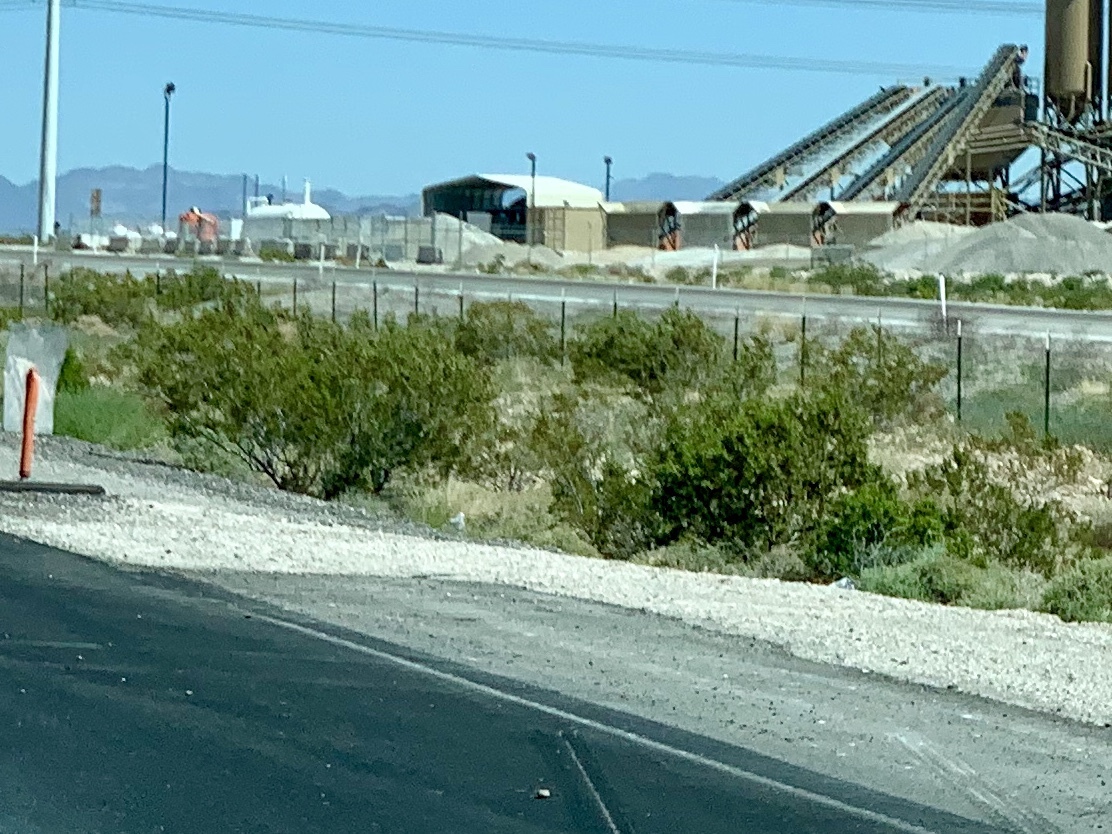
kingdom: Plantae
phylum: Tracheophyta
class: Magnoliopsida
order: Zygophyllales
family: Zygophyllaceae
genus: Larrea
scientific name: Larrea tridentata
